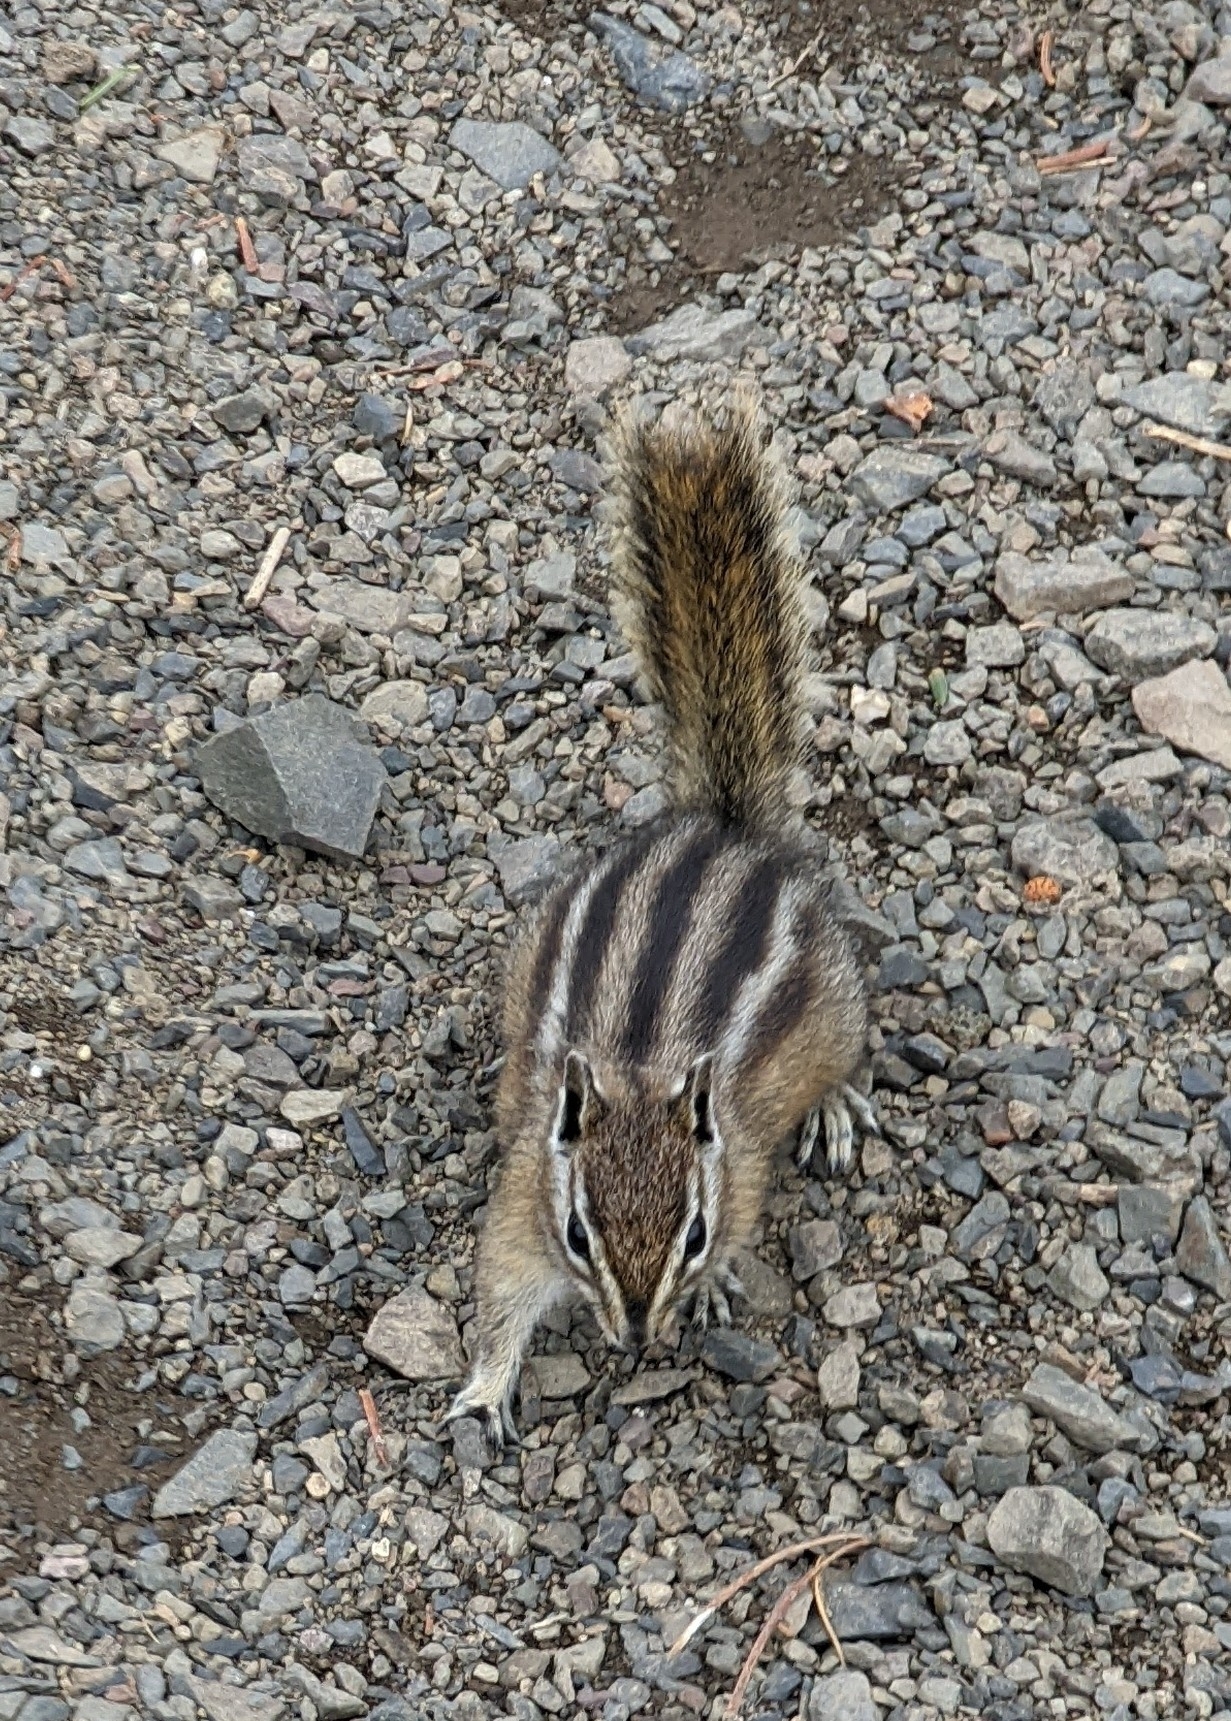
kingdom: Animalia
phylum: Chordata
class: Mammalia
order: Rodentia
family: Sciuridae
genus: Tamias
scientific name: Tamias amoenus
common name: Yellow-pine chipmunk
